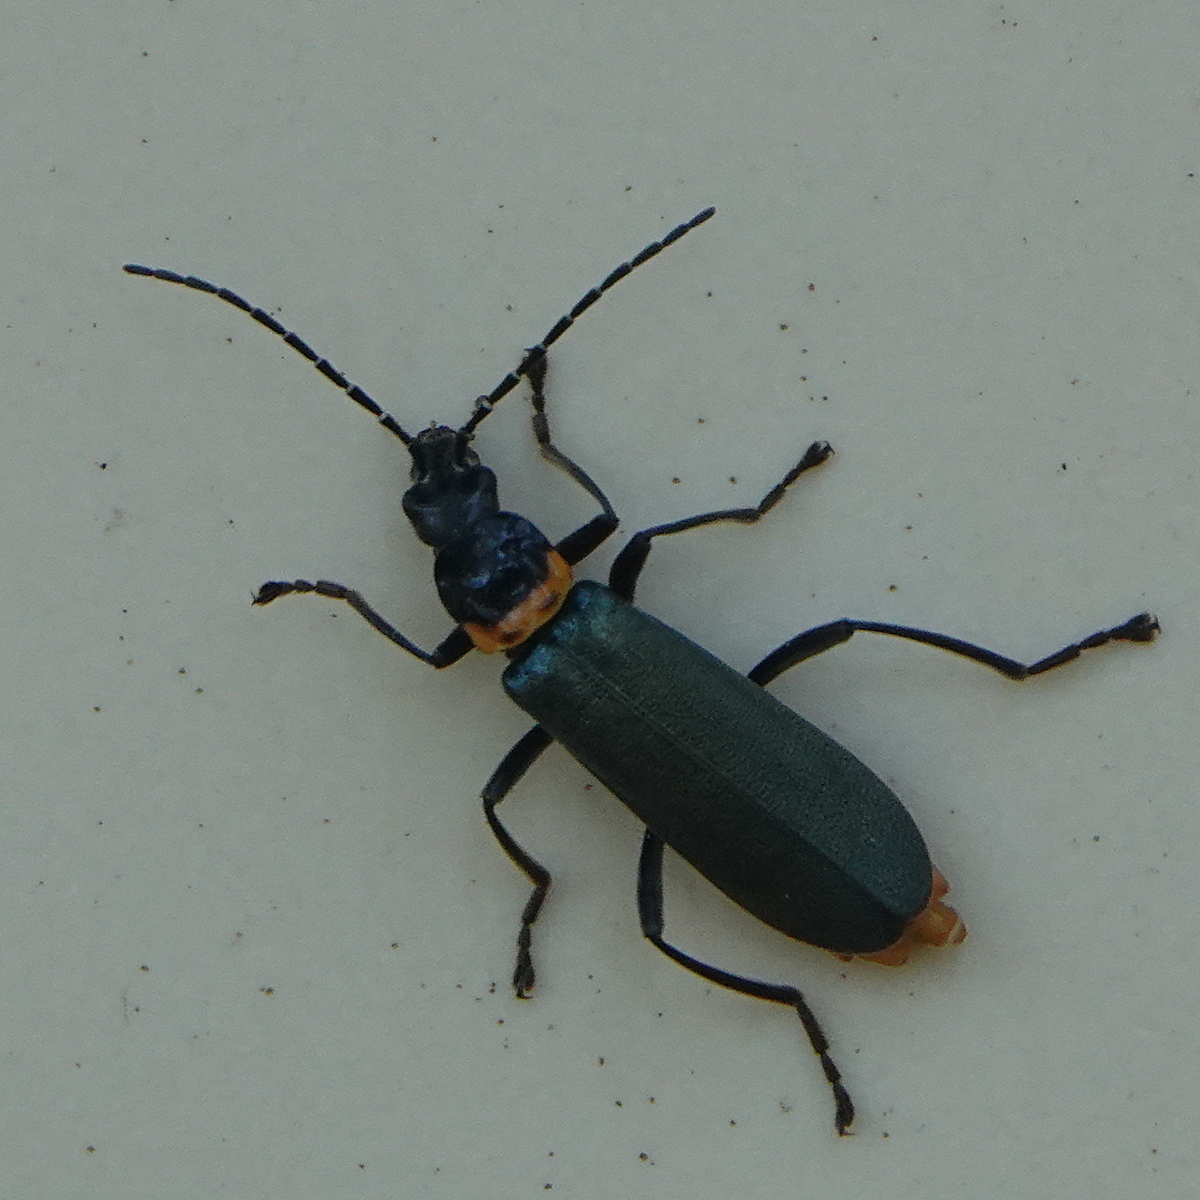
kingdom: Animalia
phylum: Arthropoda
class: Insecta
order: Coleoptera
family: Cantharidae
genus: Chauliognathus
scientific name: Chauliognathus
